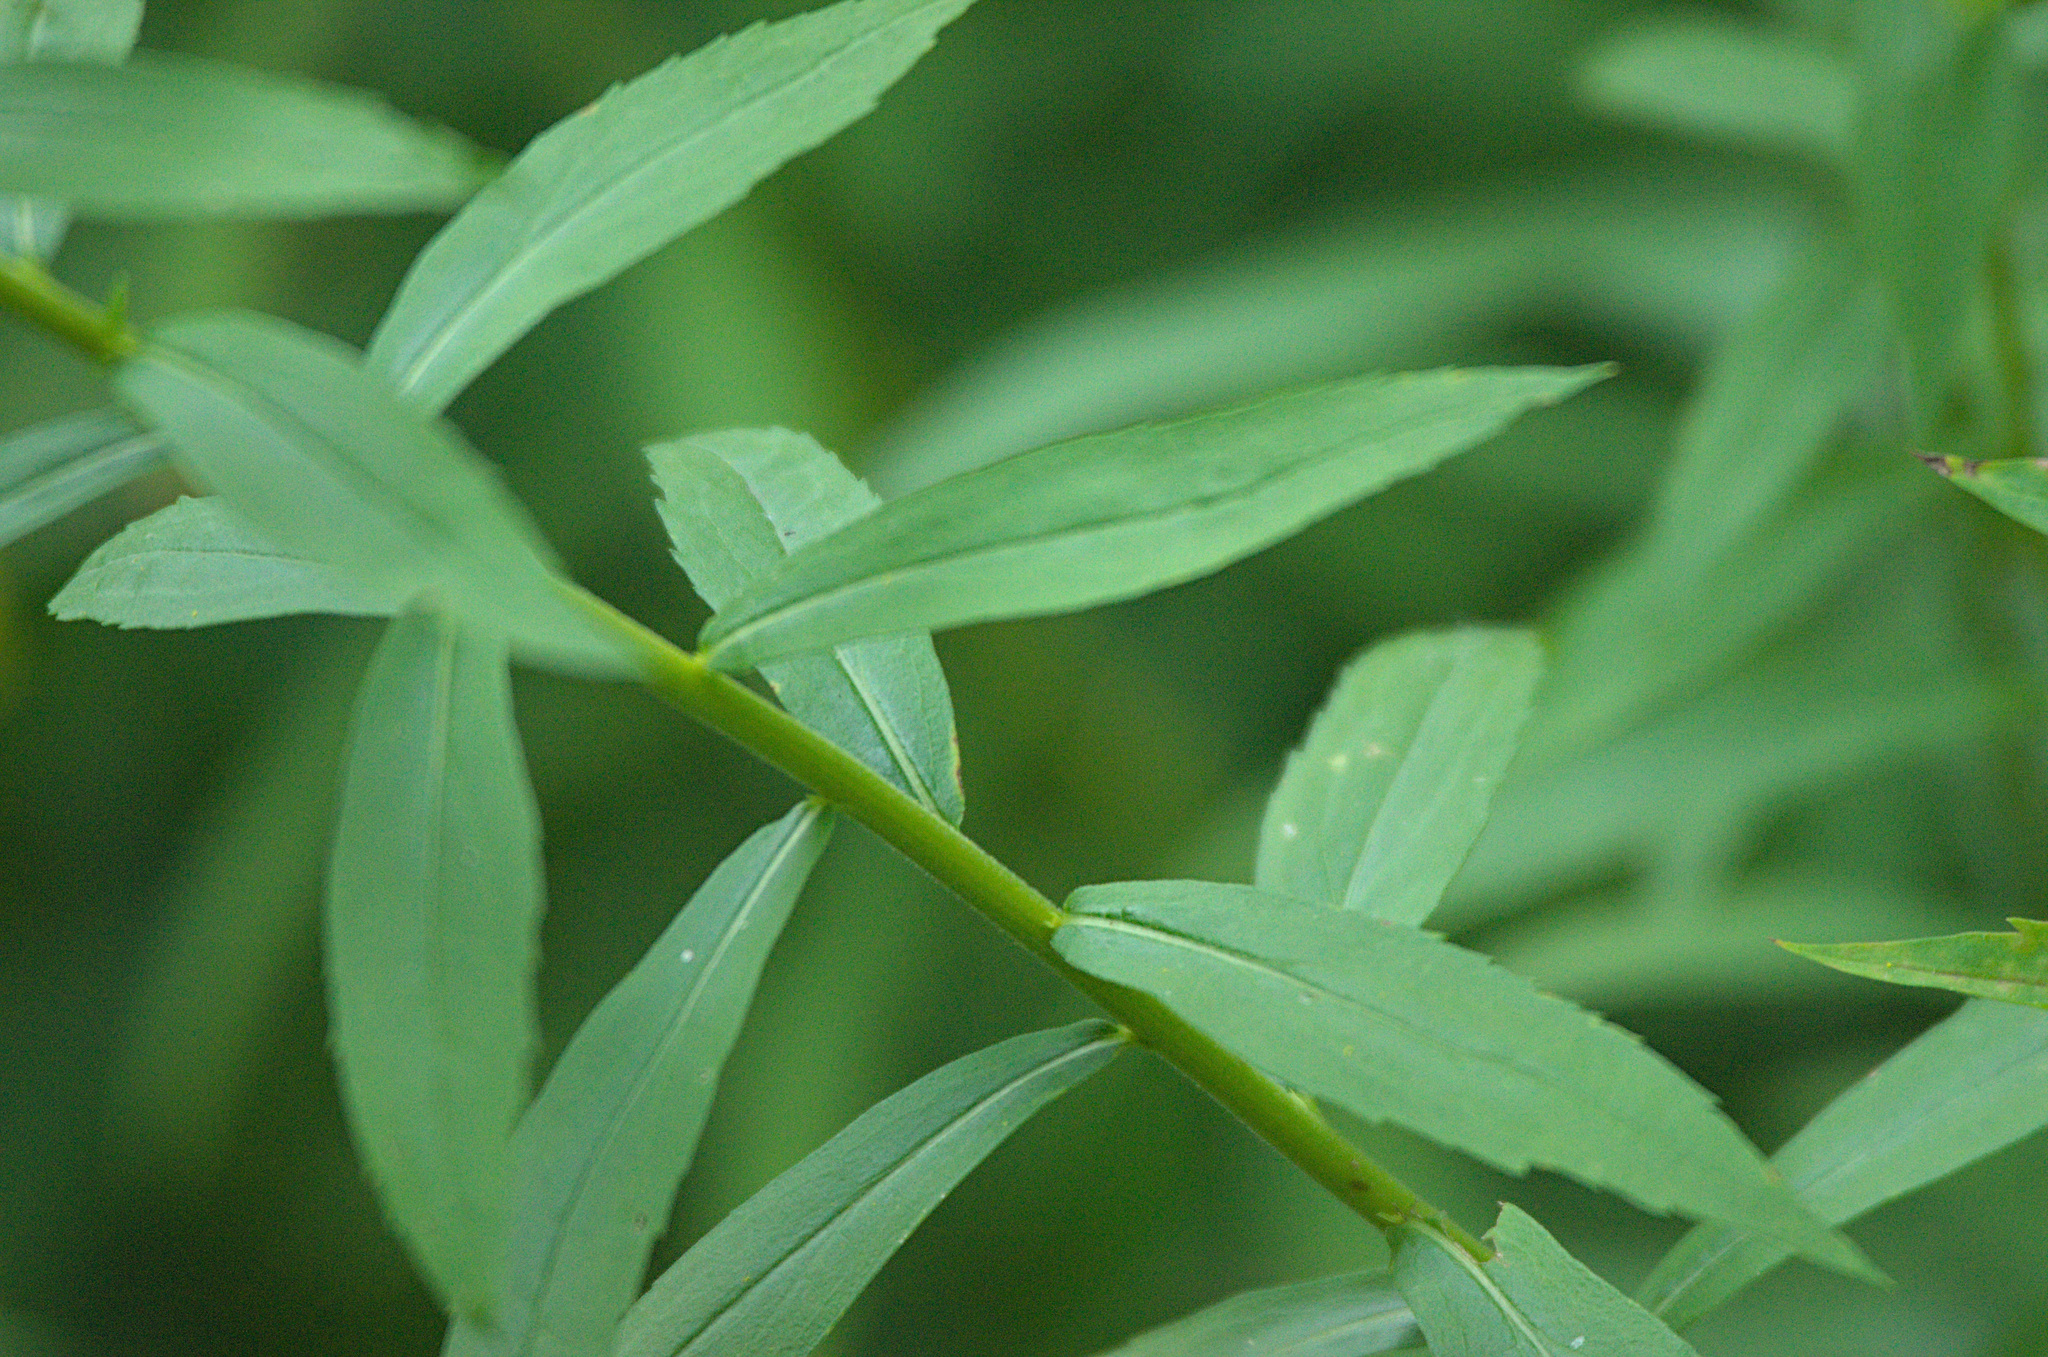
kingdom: Plantae
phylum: Tracheophyta
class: Magnoliopsida
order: Asterales
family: Asteraceae
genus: Solidago
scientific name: Solidago canadensis
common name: Canada goldenrod
